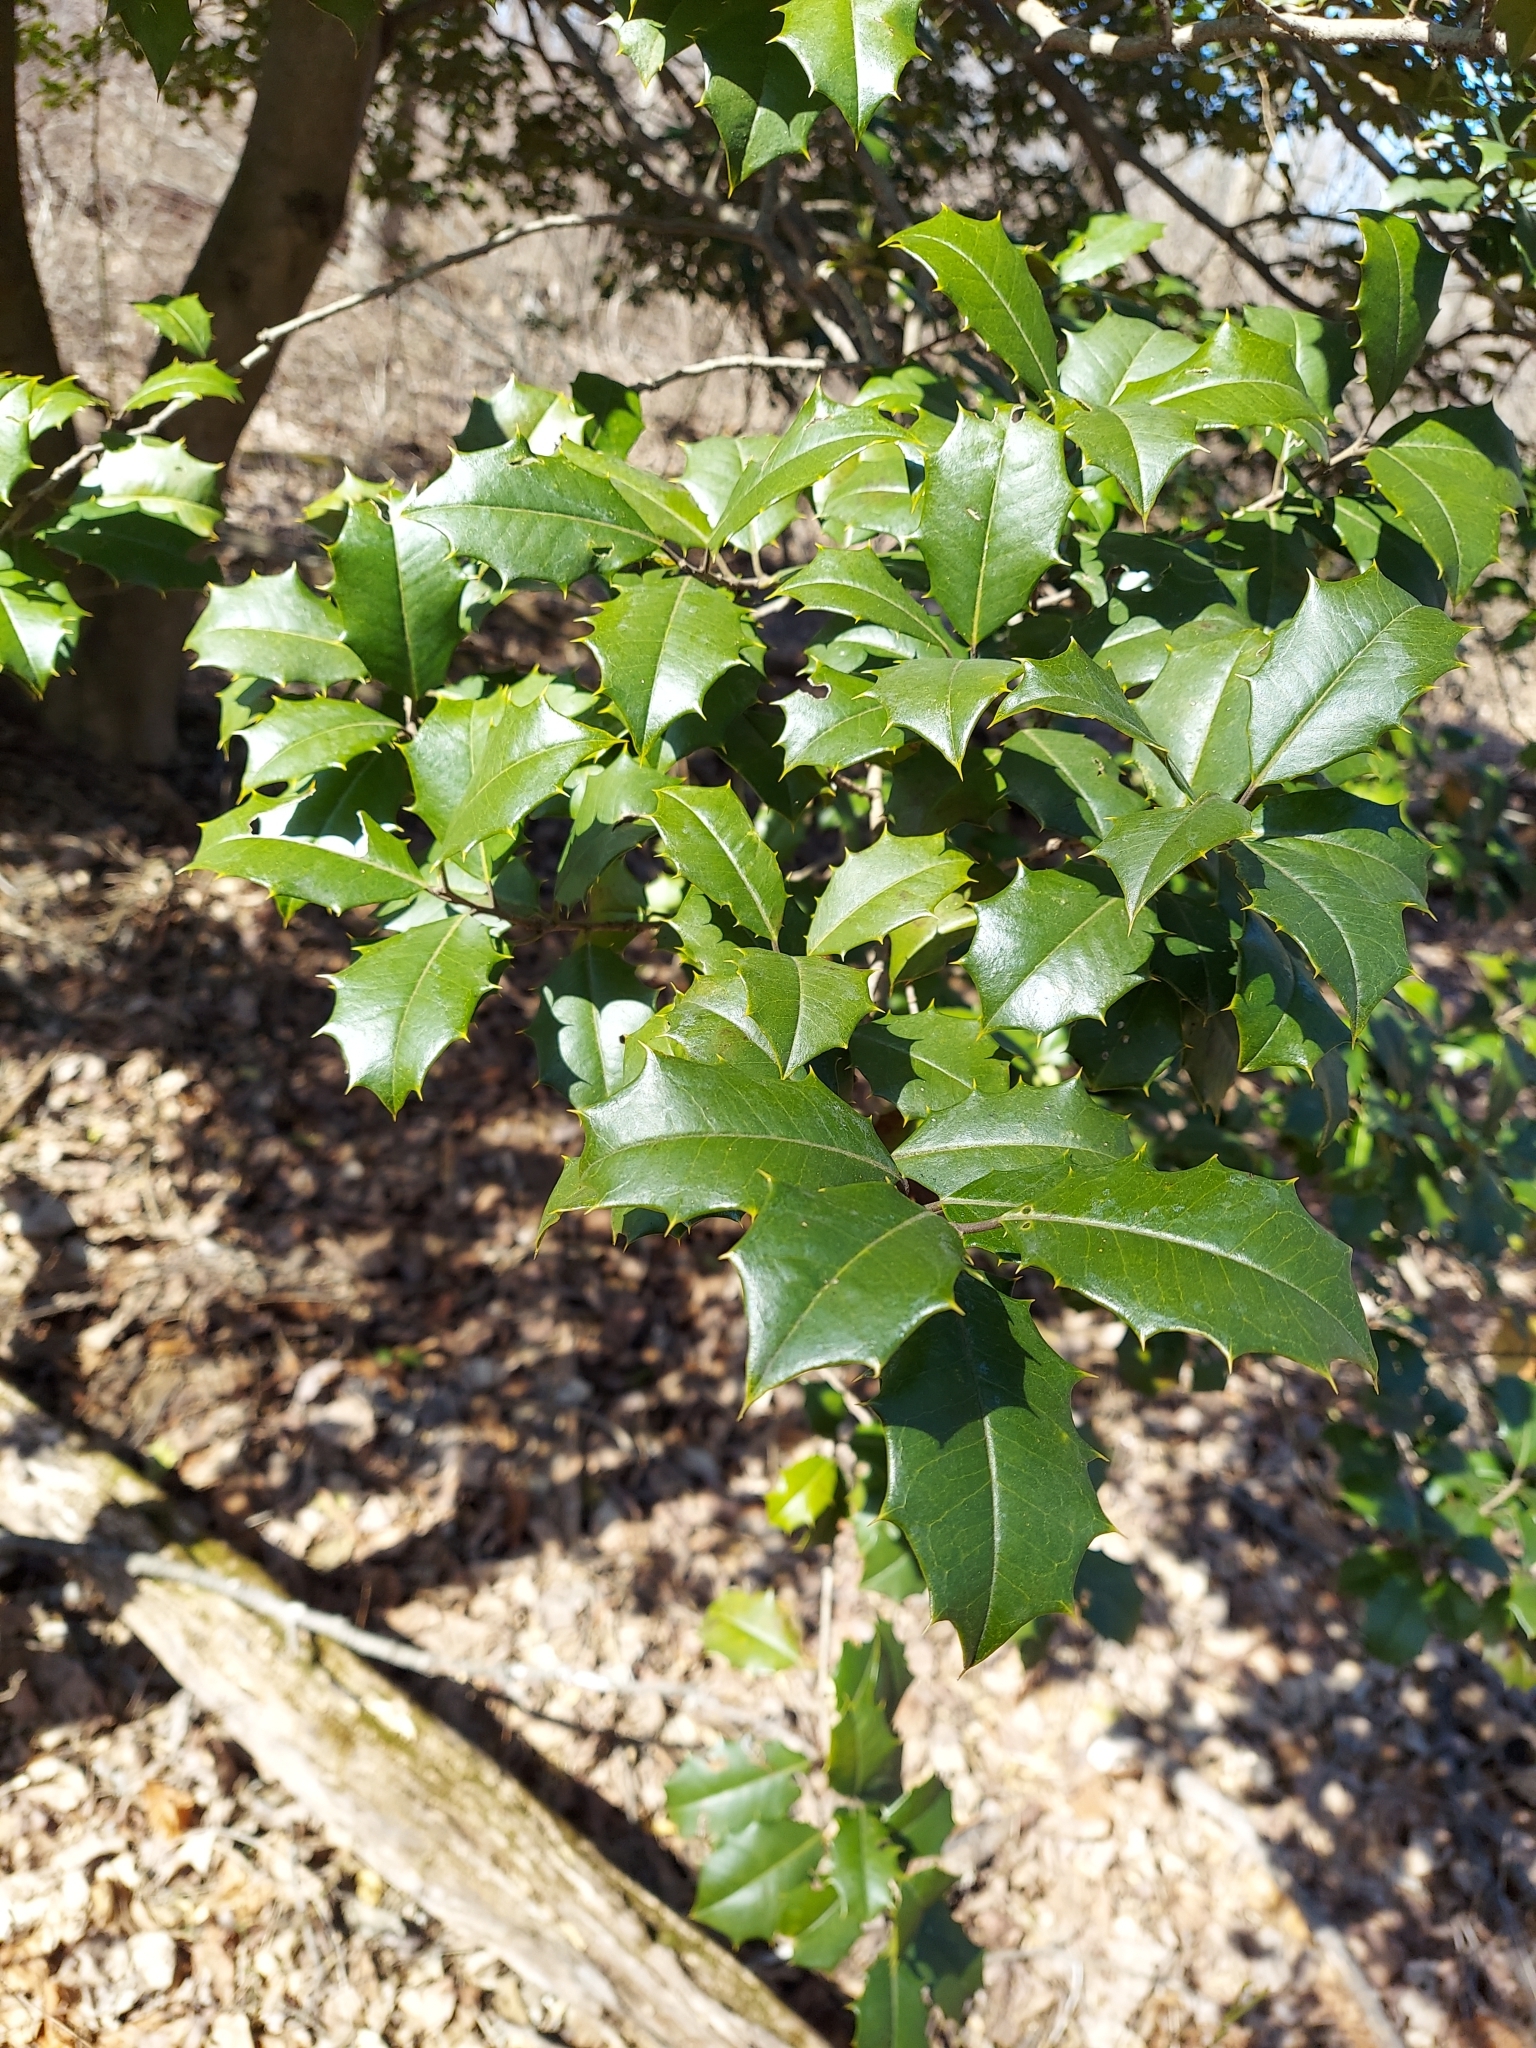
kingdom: Plantae
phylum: Tracheophyta
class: Magnoliopsida
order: Aquifoliales
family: Aquifoliaceae
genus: Ilex
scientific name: Ilex opaca
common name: American holly
